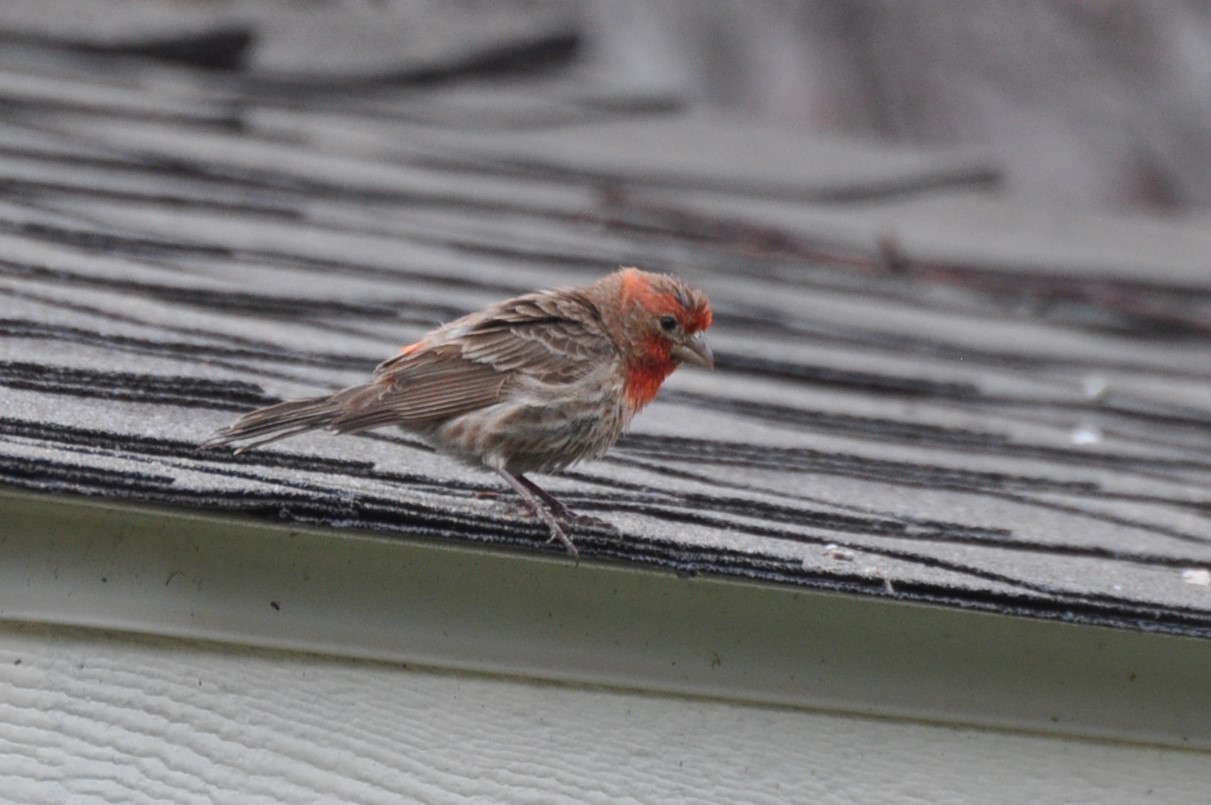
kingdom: Animalia
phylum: Chordata
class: Aves
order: Passeriformes
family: Fringillidae
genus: Haemorhous
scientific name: Haemorhous mexicanus
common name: House finch
